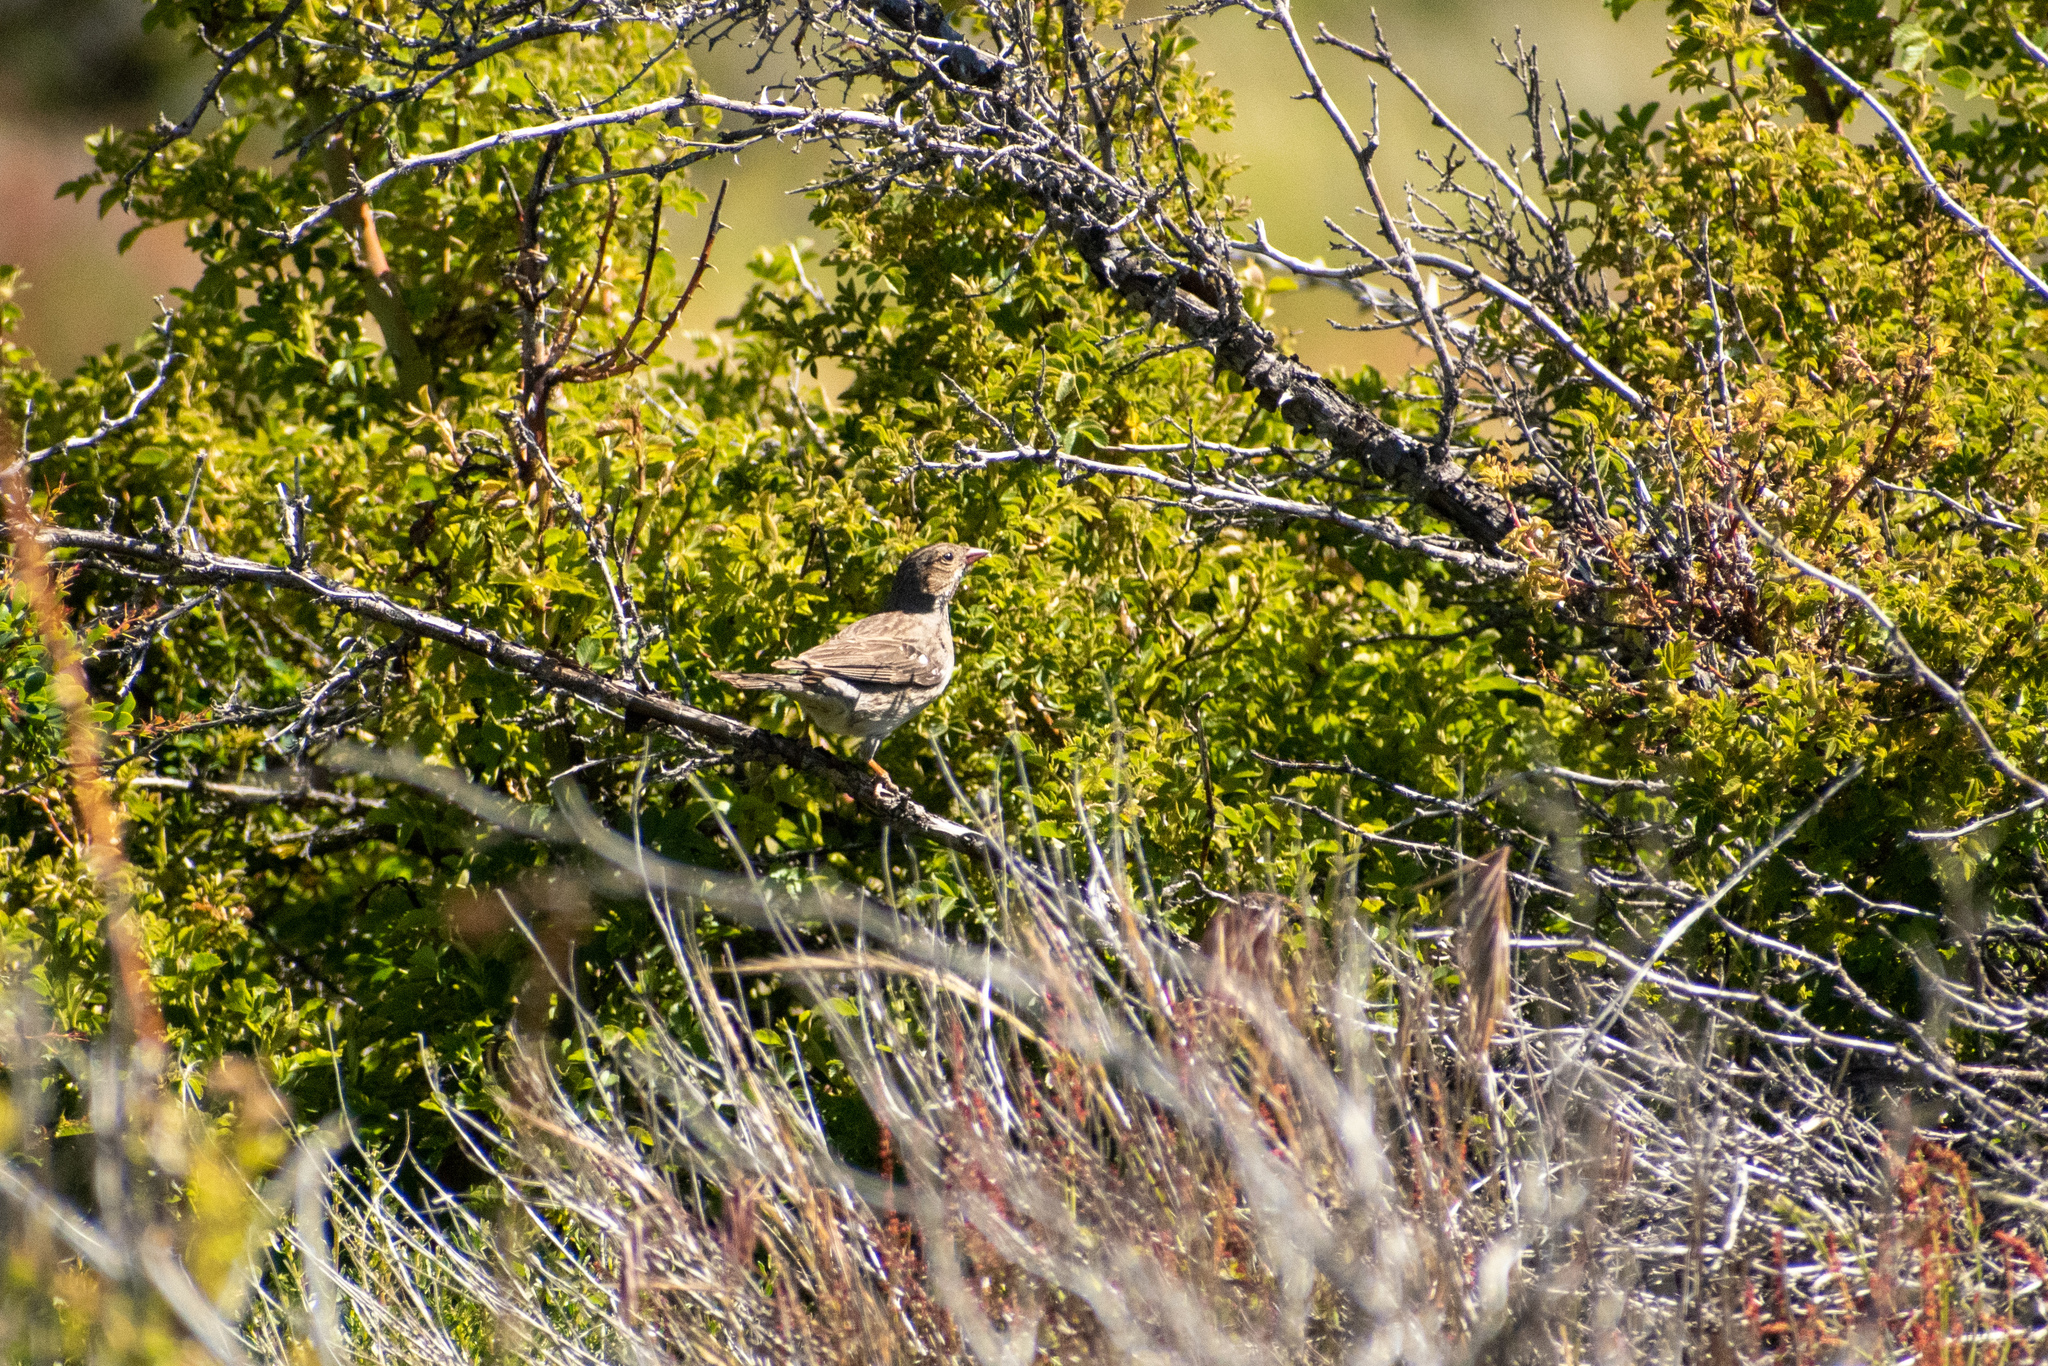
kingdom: Animalia
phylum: Chordata
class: Aves
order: Passeriformes
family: Thraupidae
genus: Rhopospina
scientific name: Rhopospina fruticeti
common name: Mourning sierra finch
